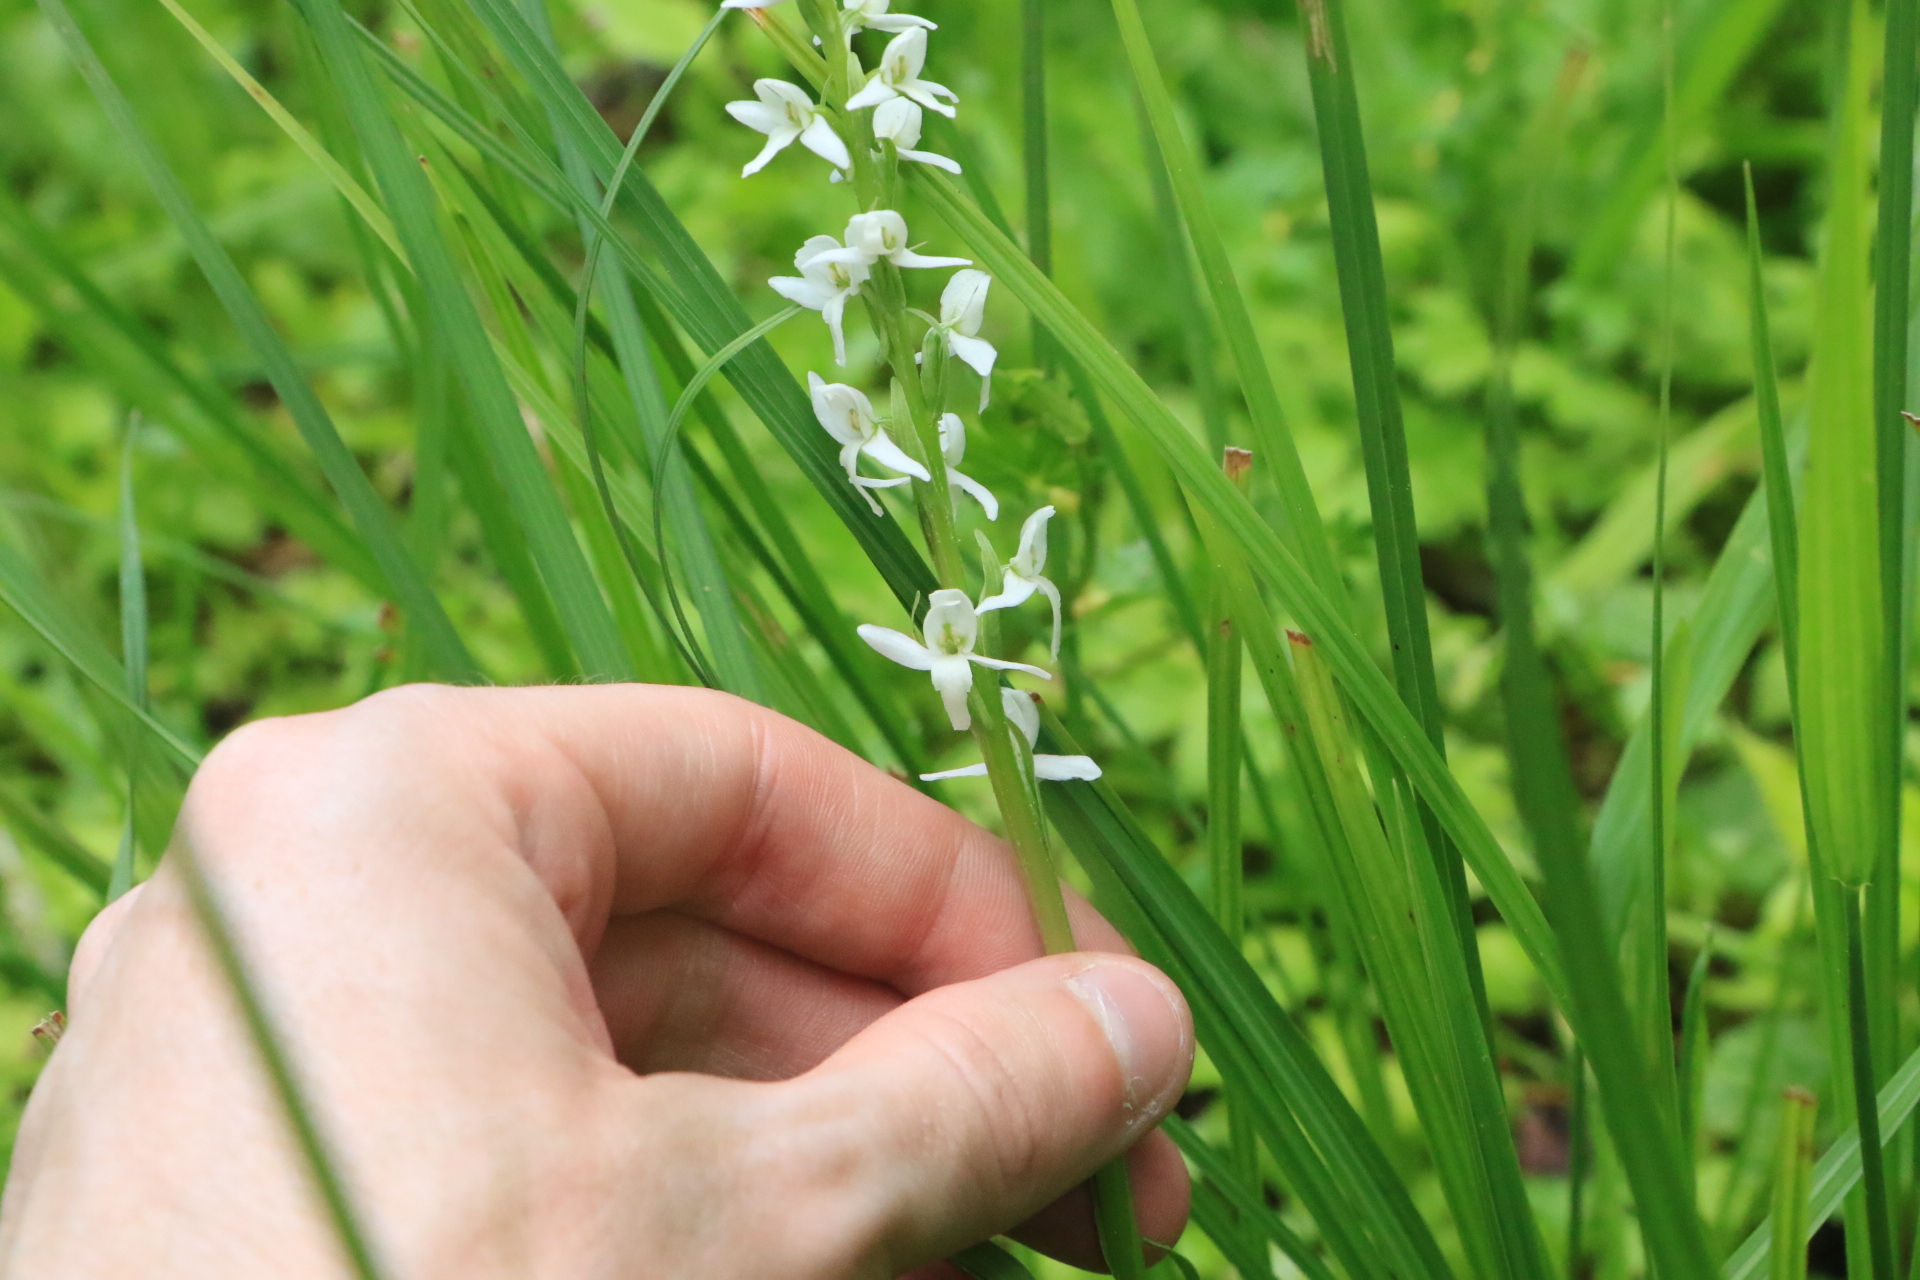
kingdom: Plantae
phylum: Tracheophyta
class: Liliopsida
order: Asparagales
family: Orchidaceae
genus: Platanthera
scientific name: Platanthera dilatata
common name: Bog candles
